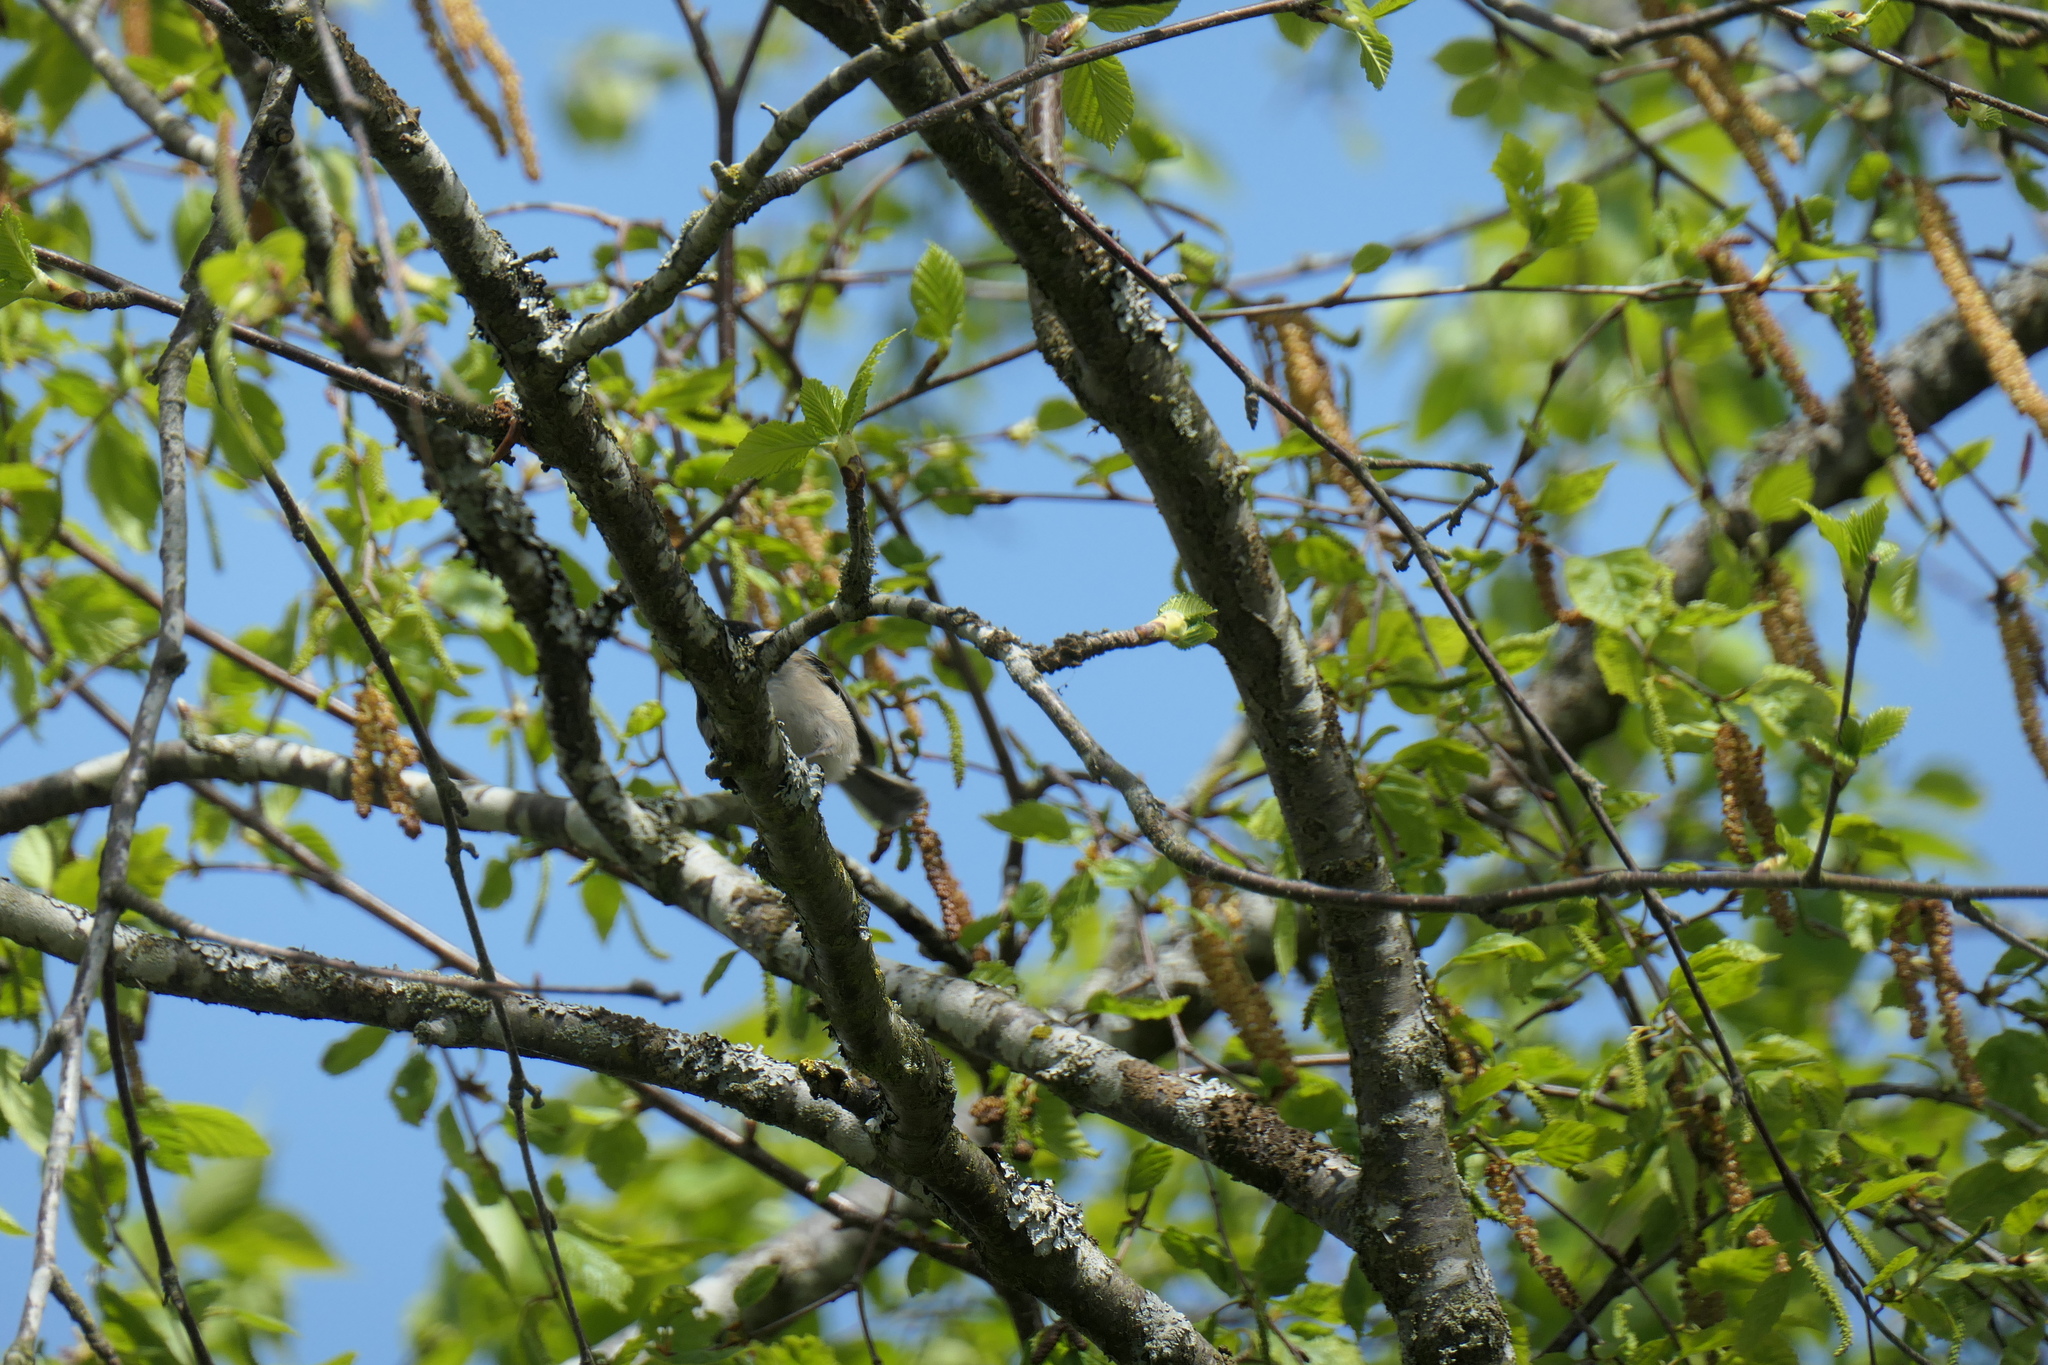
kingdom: Animalia
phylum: Chordata
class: Aves
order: Passeriformes
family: Paridae
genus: Poecile
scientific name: Poecile atricapillus
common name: Black-capped chickadee
